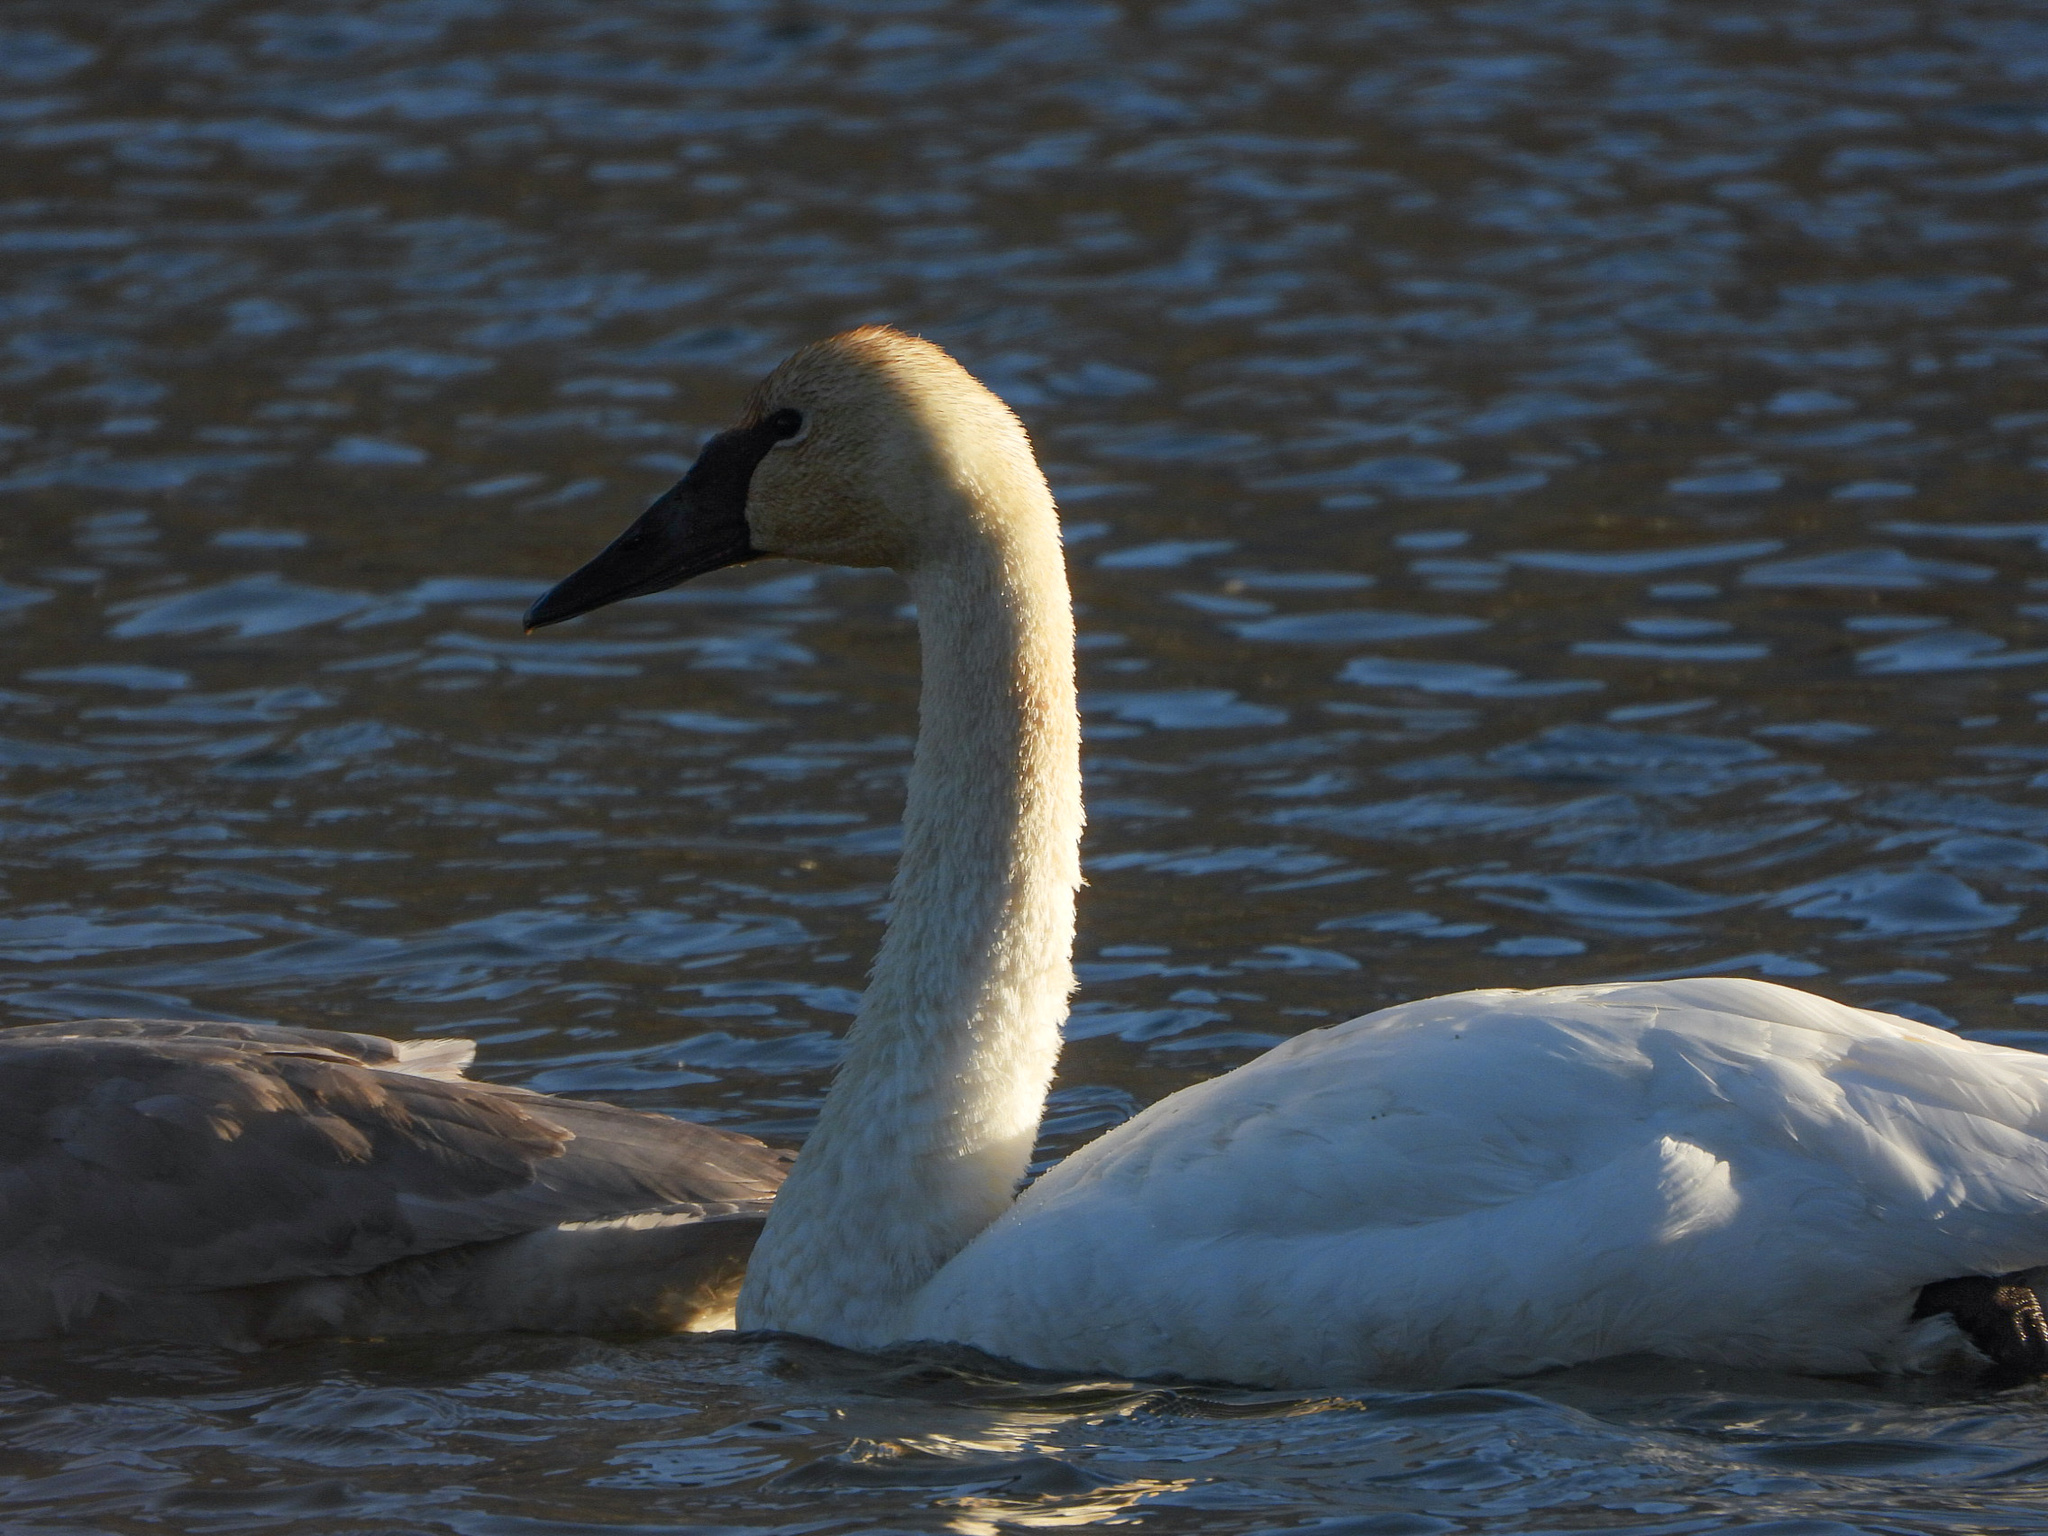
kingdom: Animalia
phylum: Chordata
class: Aves
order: Anseriformes
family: Anatidae
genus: Cygnus
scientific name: Cygnus buccinator
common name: Trumpeter swan
